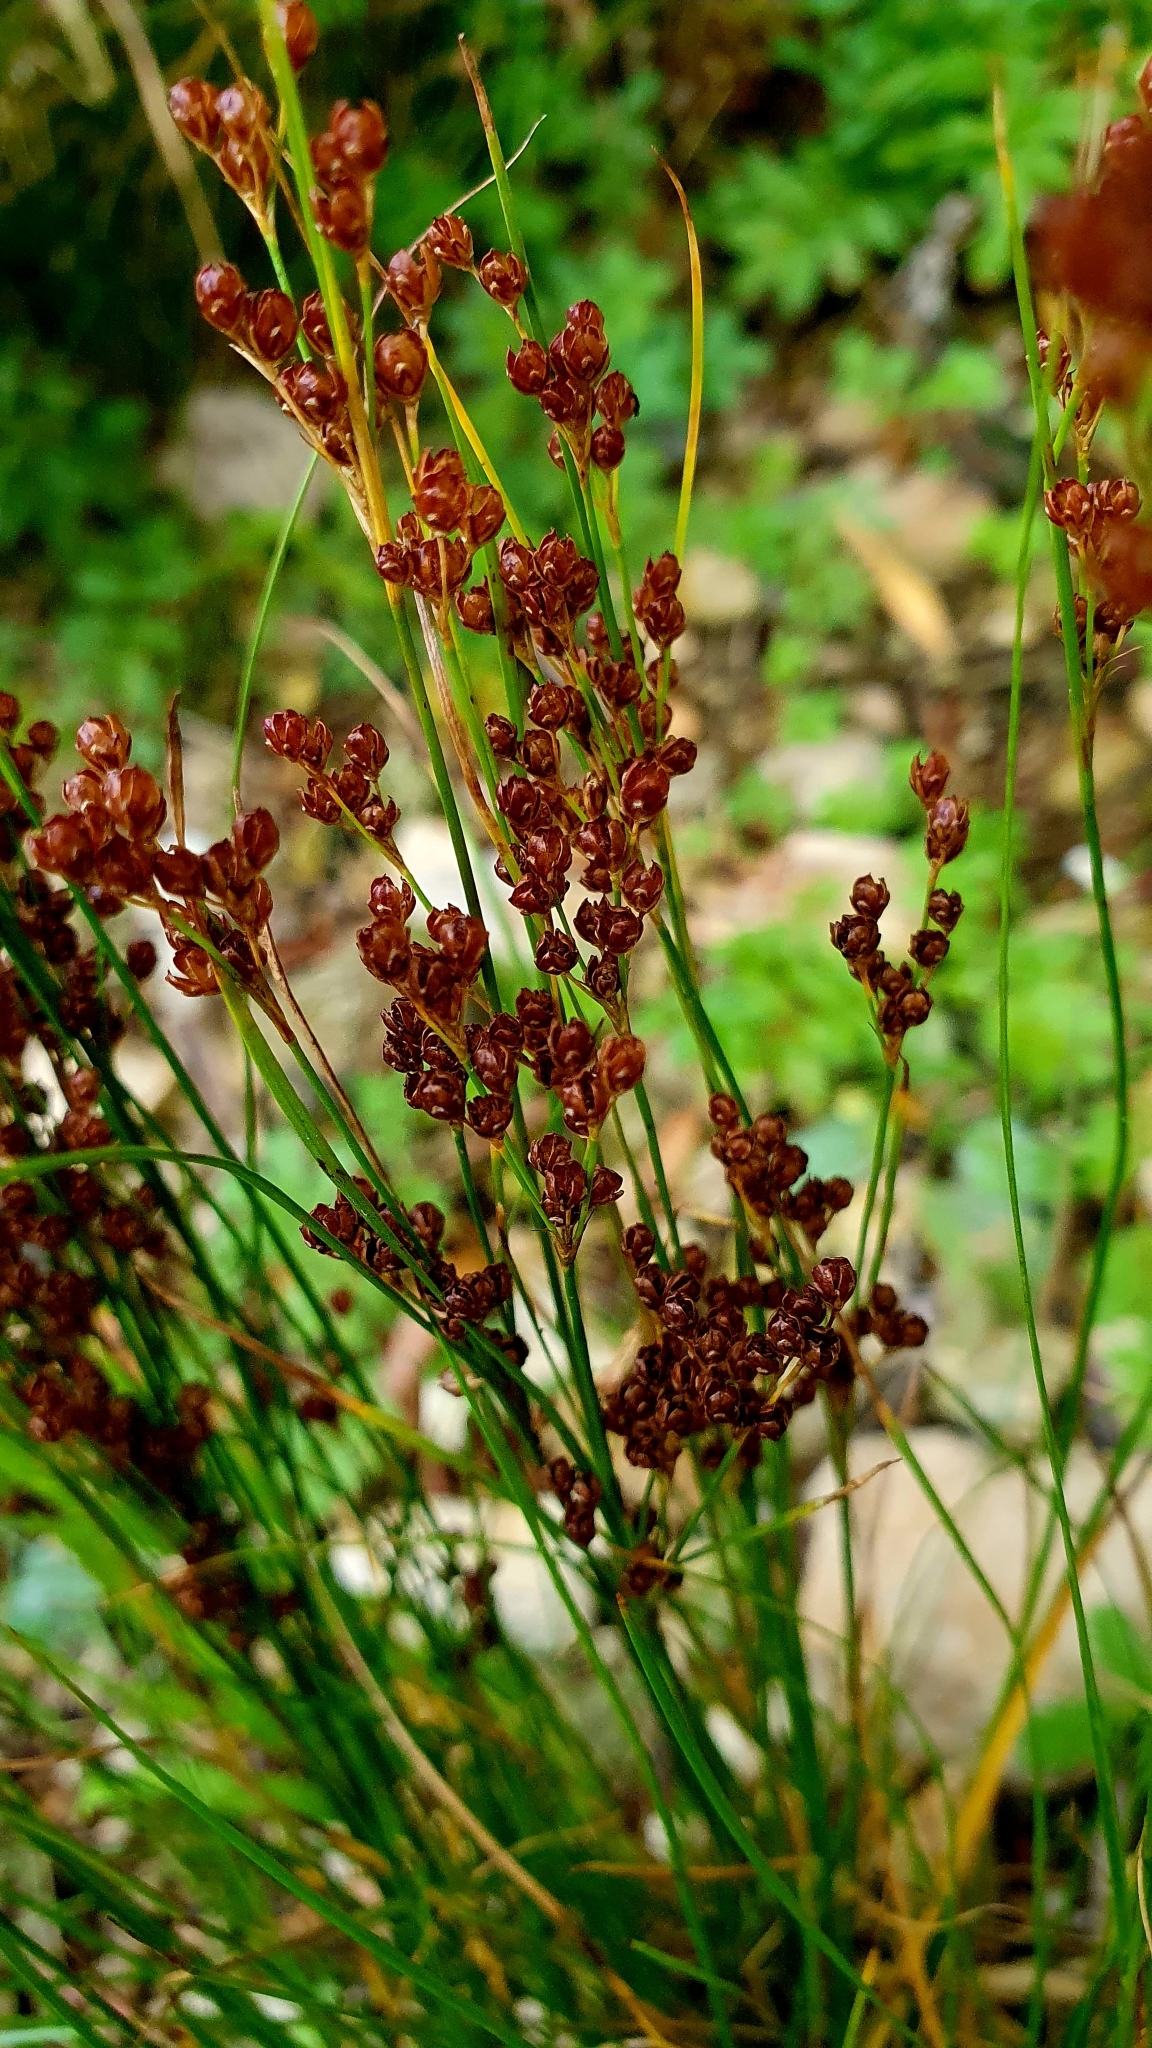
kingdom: Plantae
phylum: Tracheophyta
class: Liliopsida
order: Poales
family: Juncaceae
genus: Juncus
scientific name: Juncus compressus
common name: Round-fruited rush
